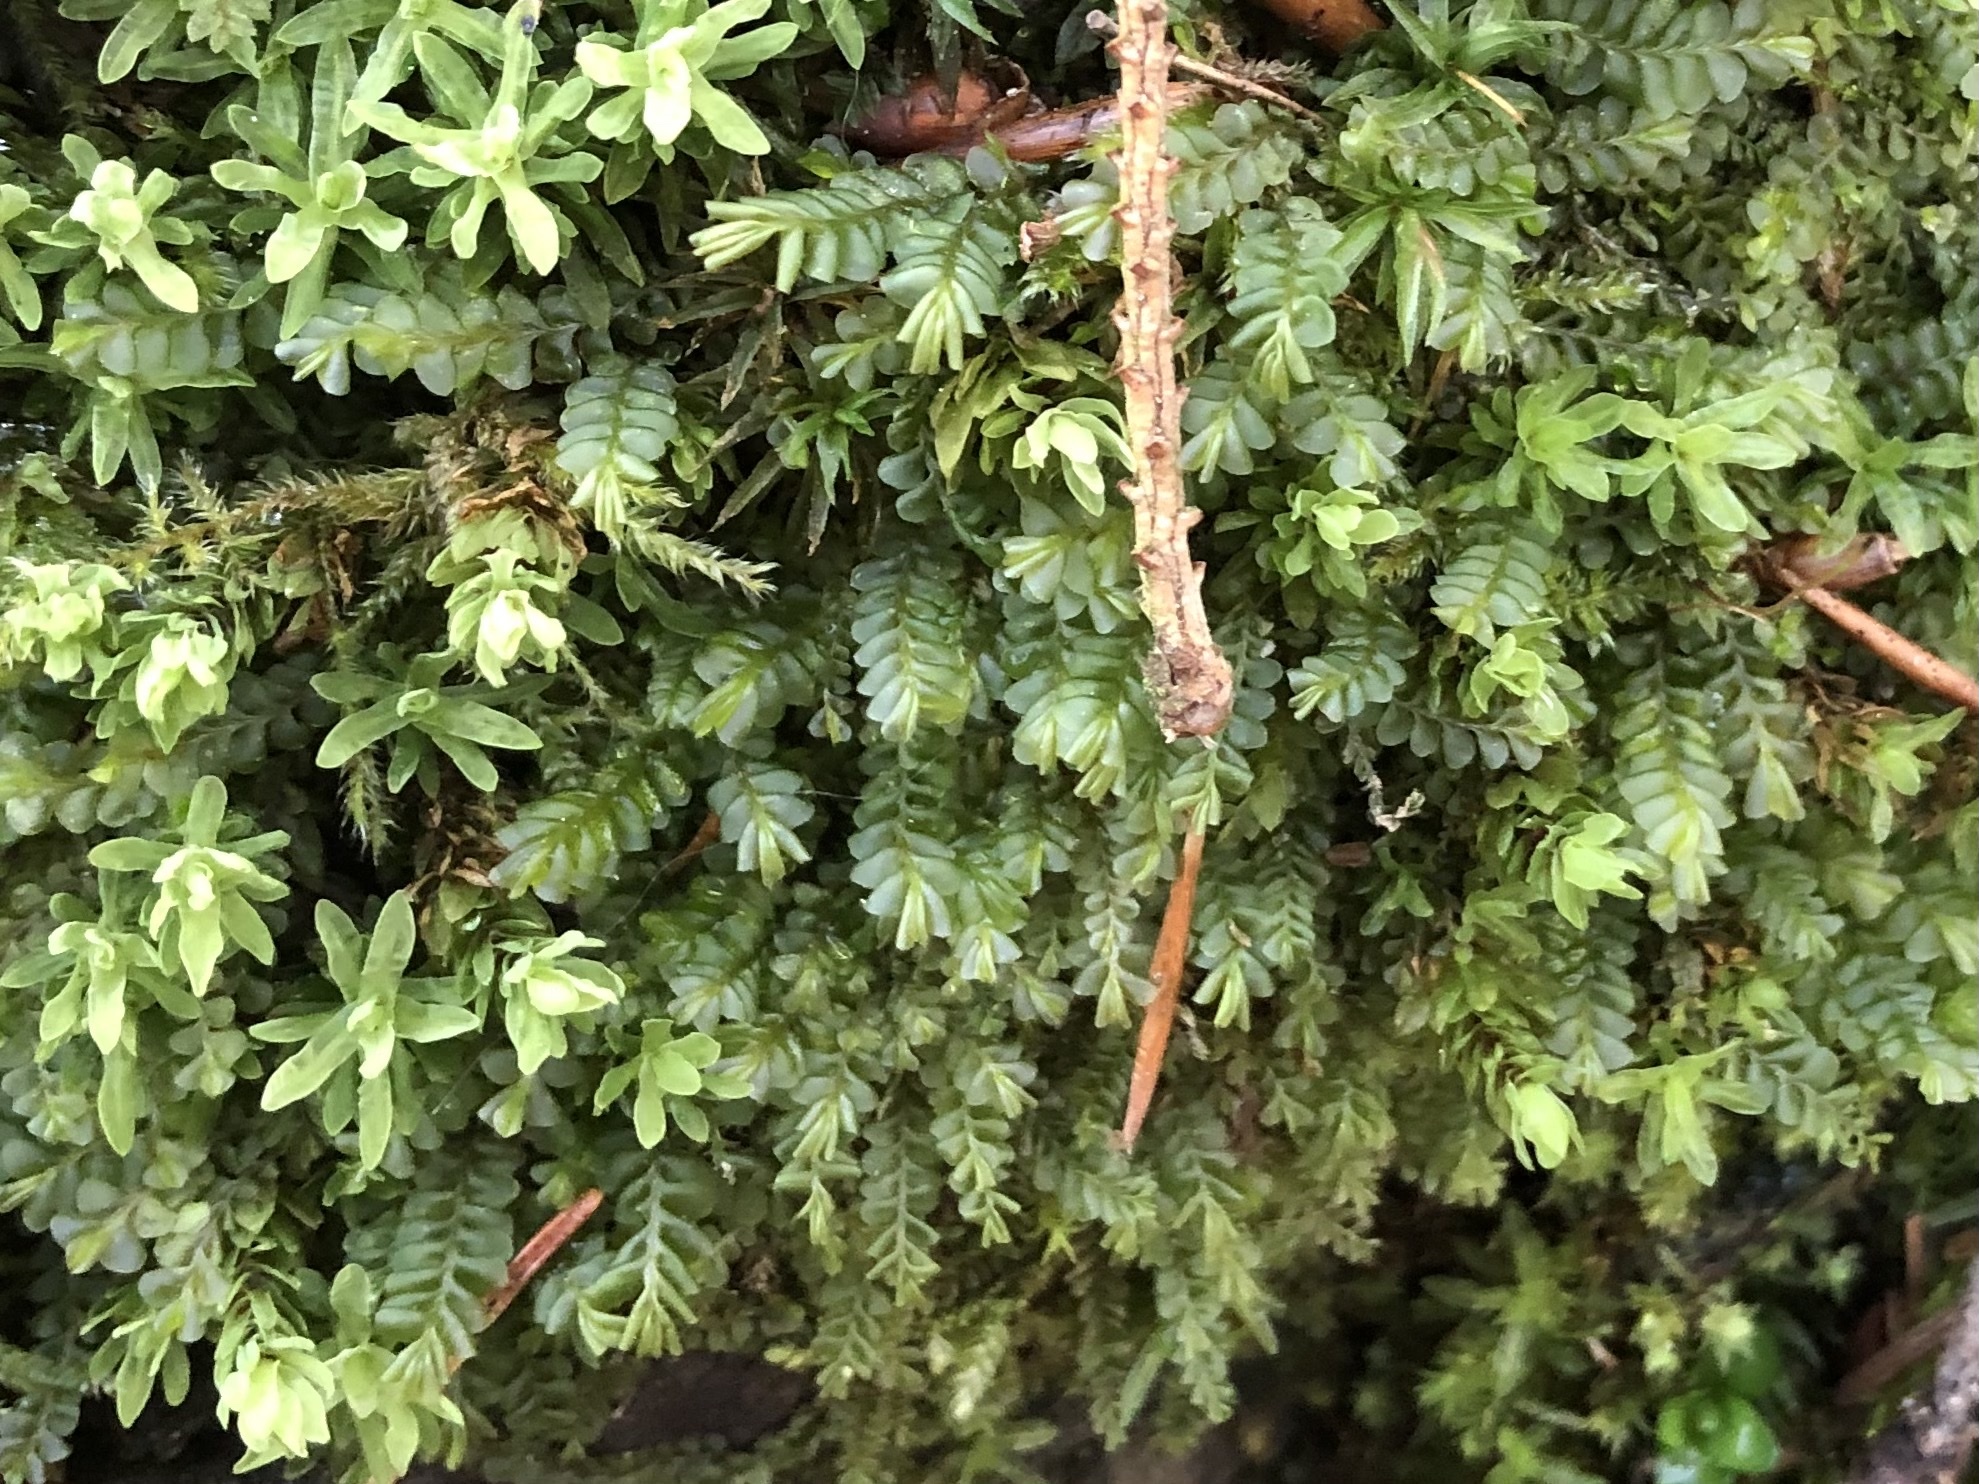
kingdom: Plantae
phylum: Marchantiophyta
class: Jungermanniopsida
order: Jungermanniales
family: Plagiochilaceae
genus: Plagiochila
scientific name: Plagiochila porelloides
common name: Lesser featherwort
